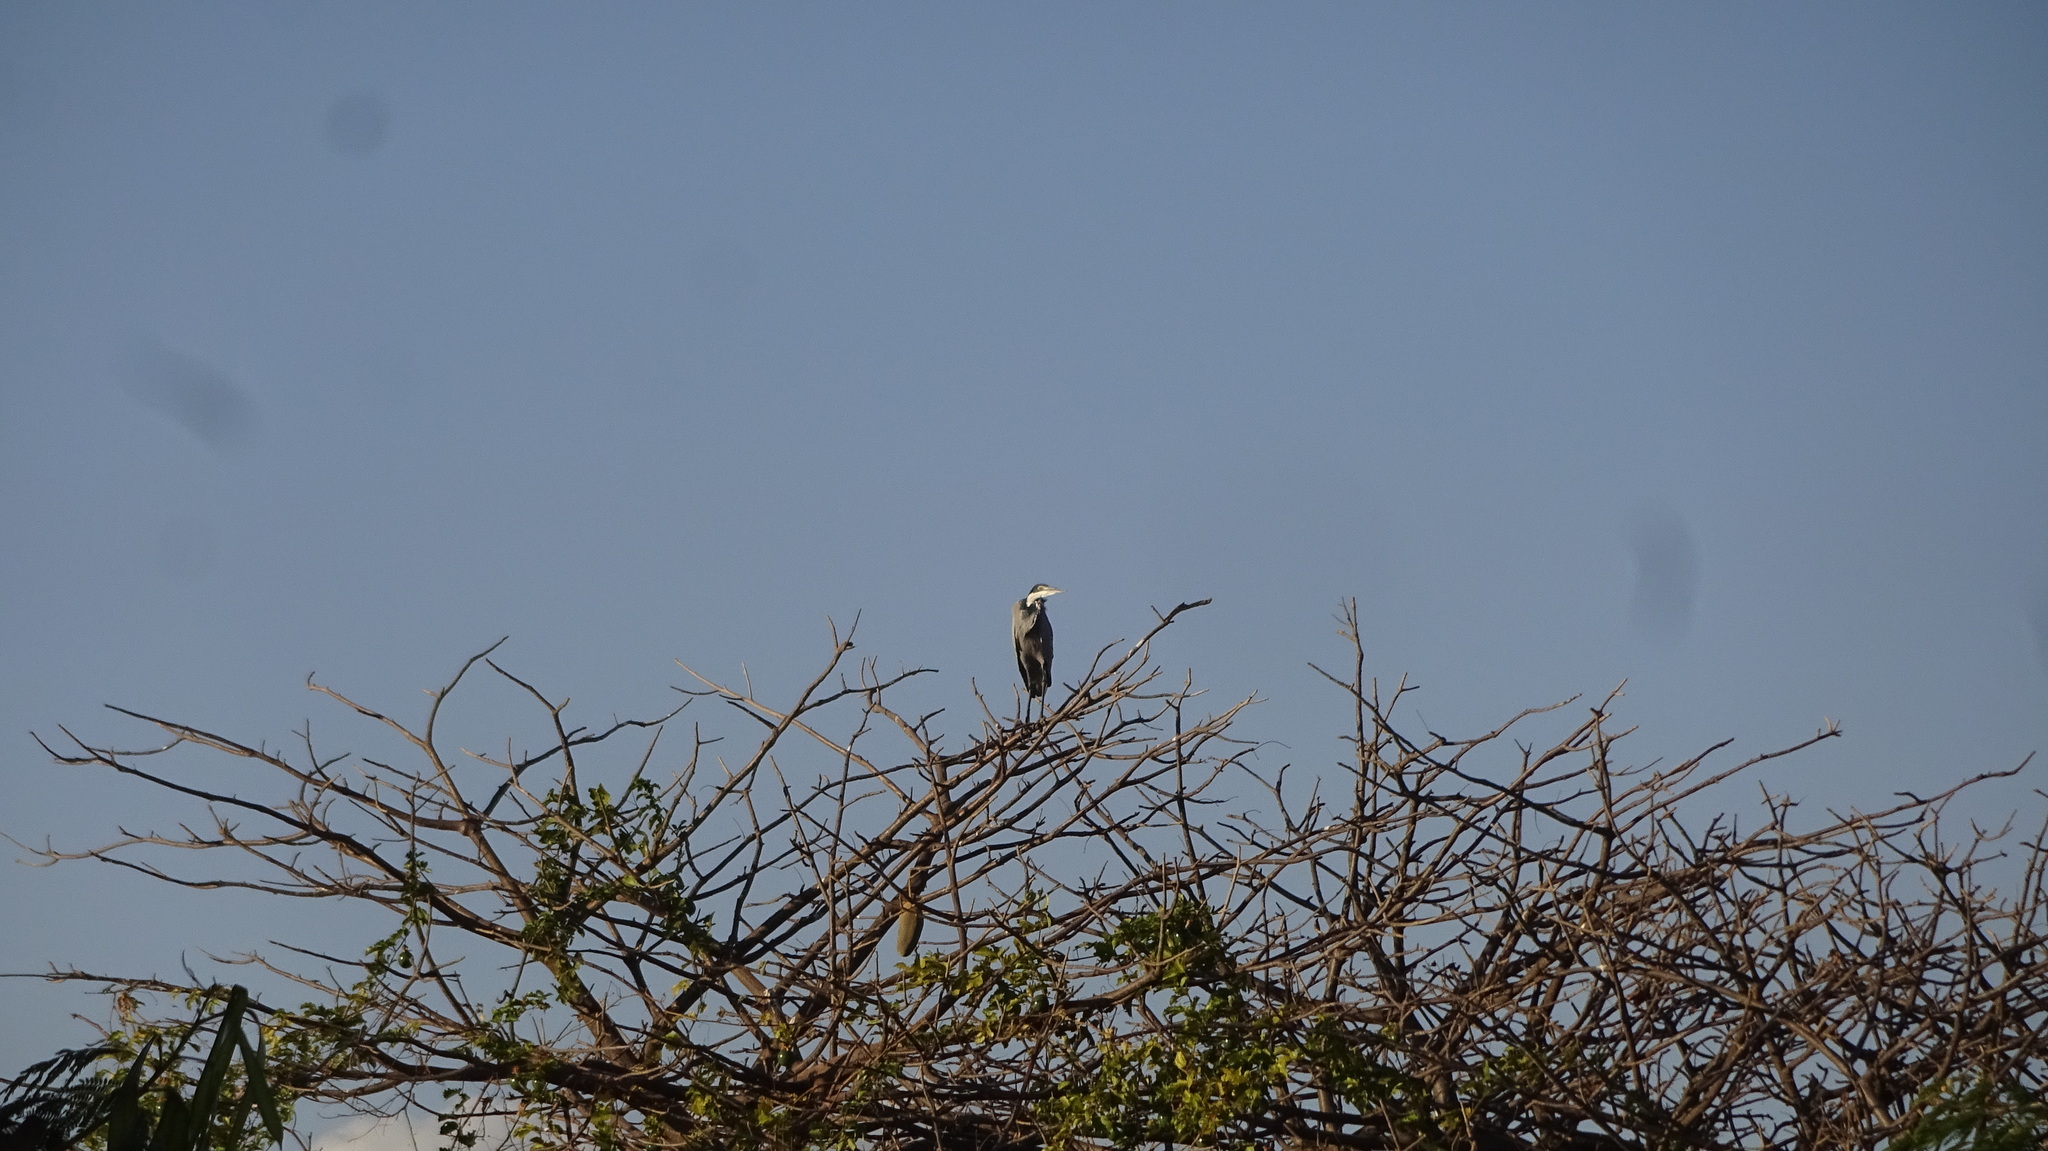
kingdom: Animalia
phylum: Chordata
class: Aves
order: Pelecaniformes
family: Ardeidae
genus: Ardea
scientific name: Ardea melanocephala
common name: Black-headed heron
